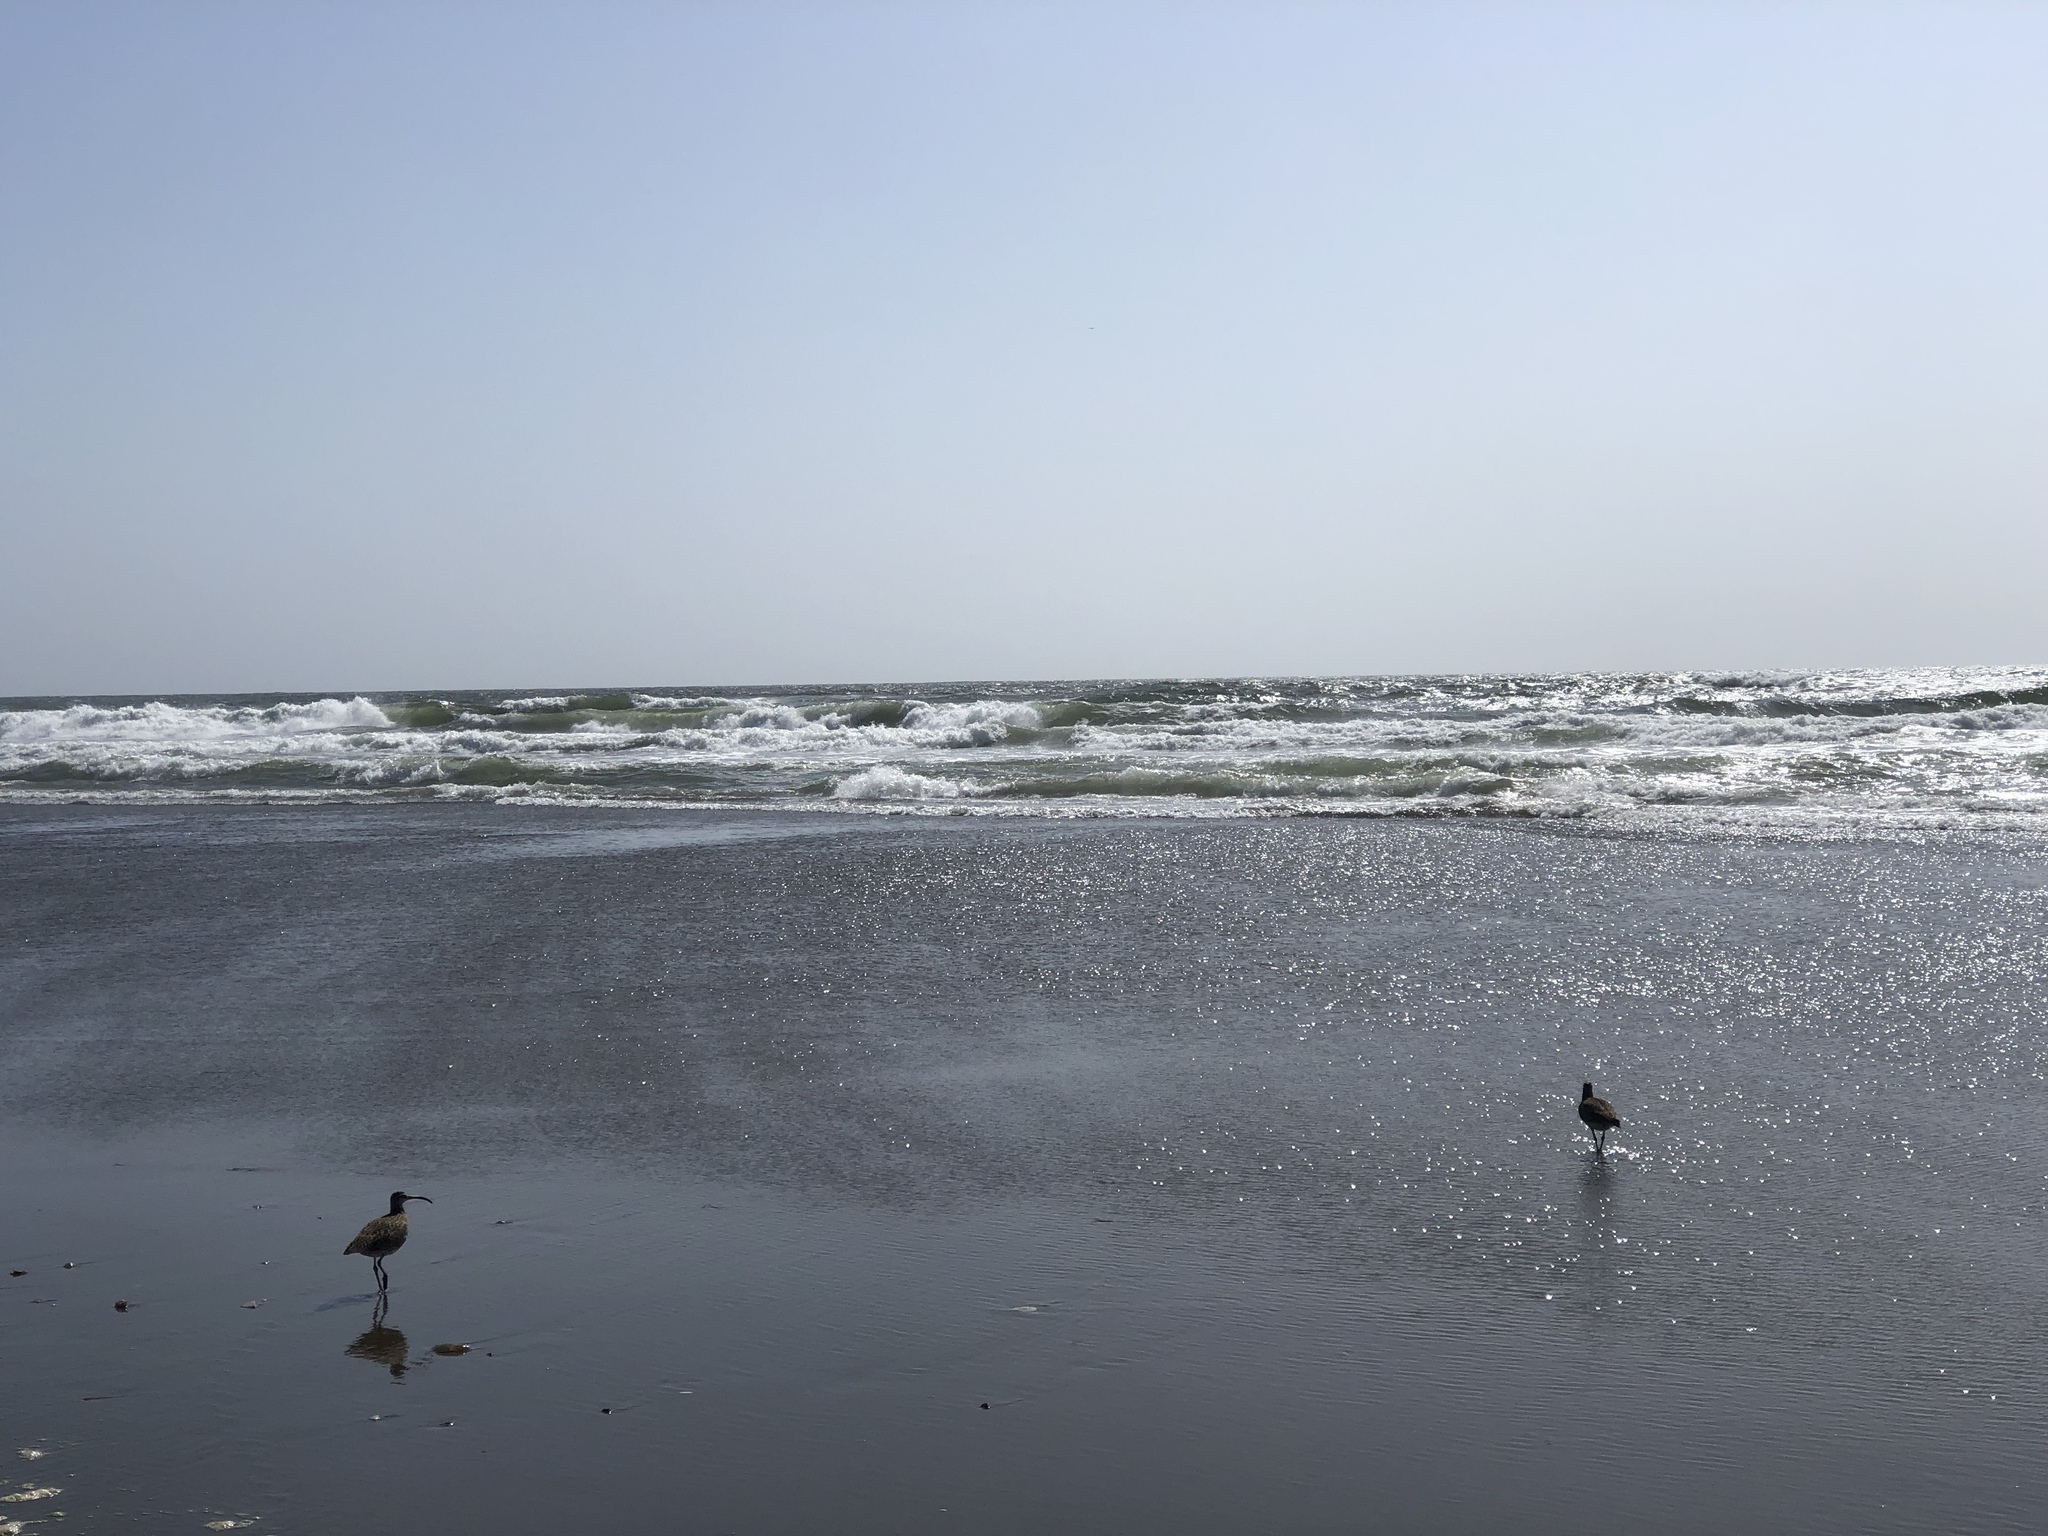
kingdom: Animalia
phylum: Chordata
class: Aves
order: Charadriiformes
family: Scolopacidae
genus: Numenius
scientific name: Numenius phaeopus
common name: Whimbrel
